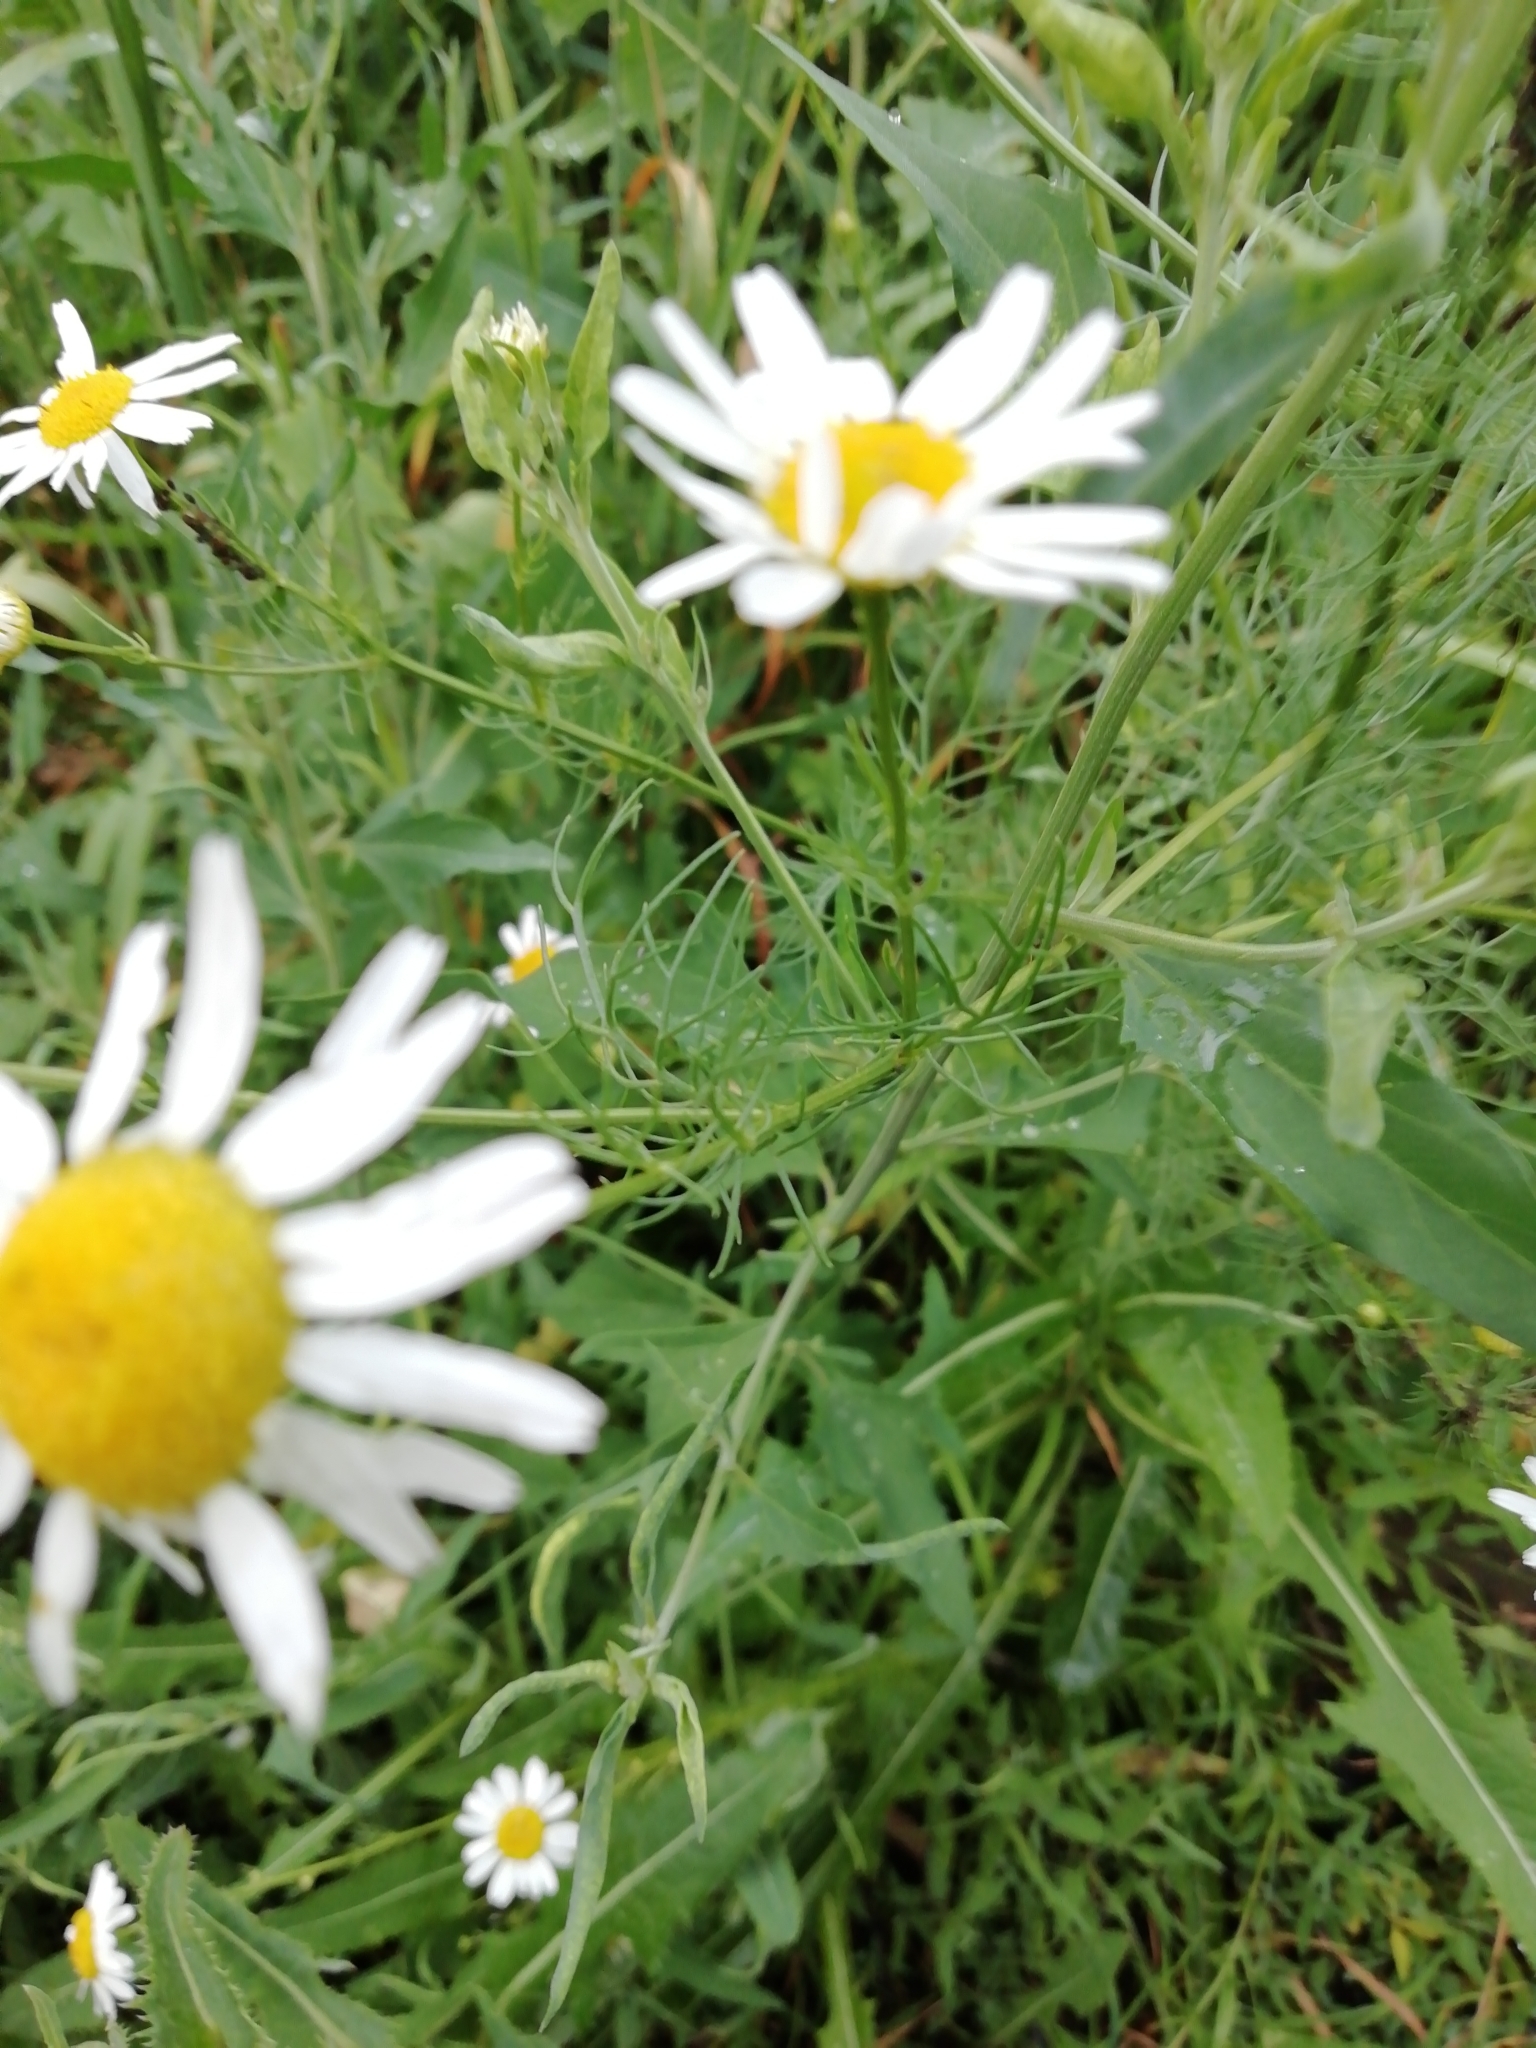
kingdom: Plantae
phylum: Tracheophyta
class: Magnoliopsida
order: Asterales
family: Asteraceae
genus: Tripleurospermum
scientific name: Tripleurospermum inodorum
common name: Scentless mayweed
